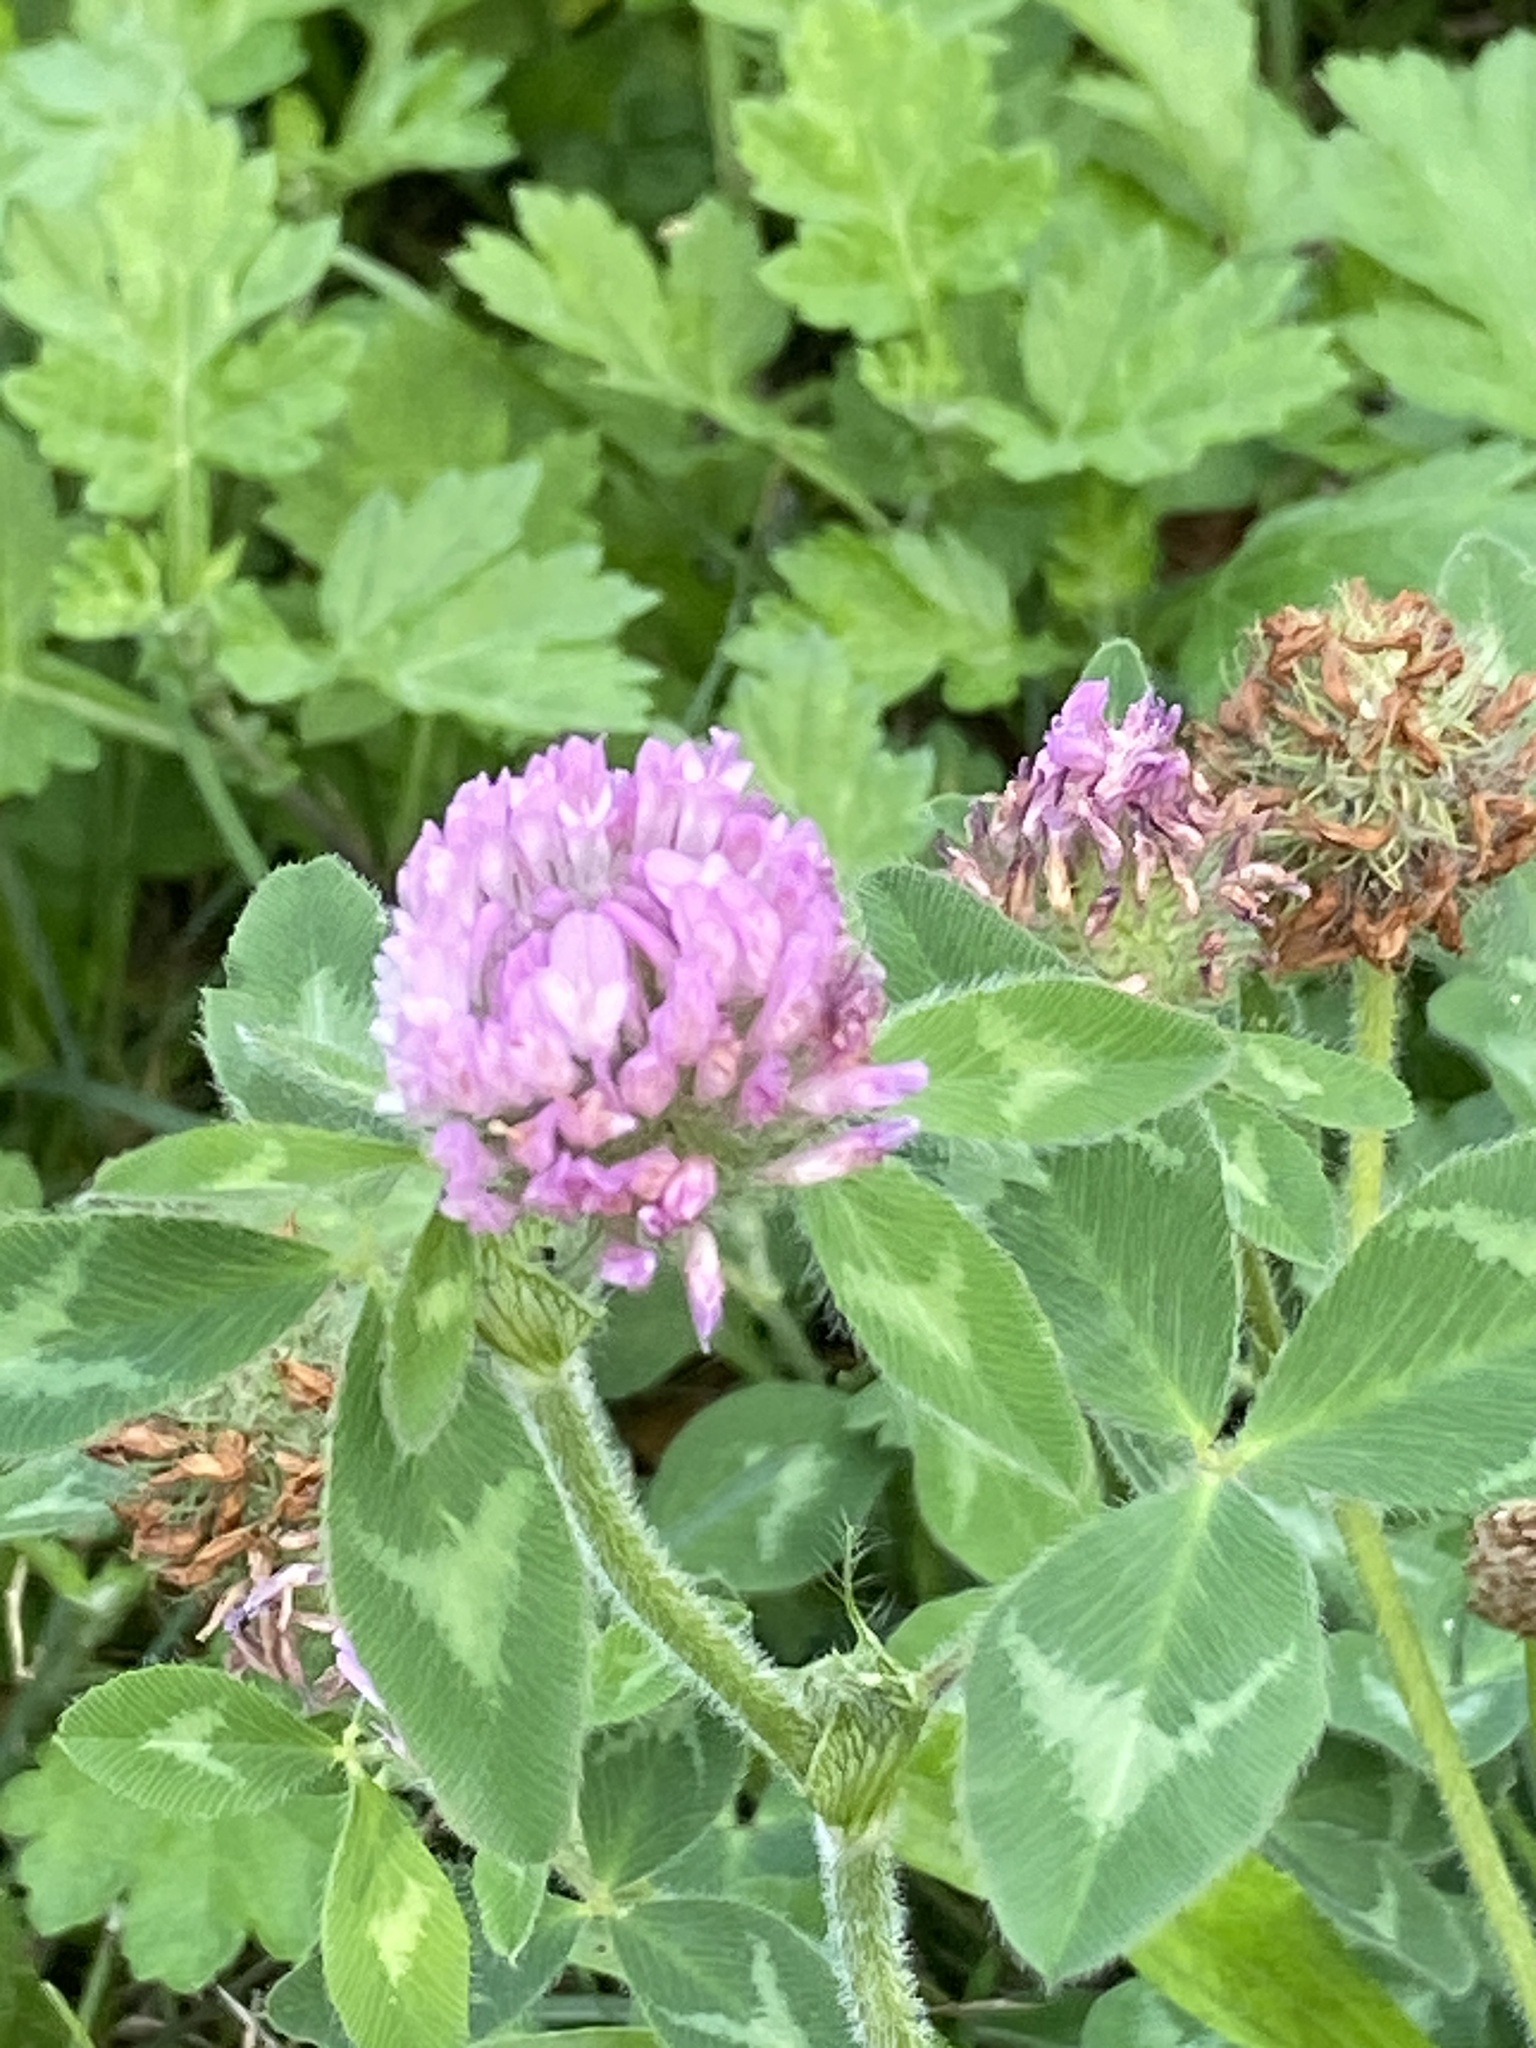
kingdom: Plantae
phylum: Tracheophyta
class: Magnoliopsida
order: Fabales
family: Fabaceae
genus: Trifolium
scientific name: Trifolium pratense
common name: Red clover
